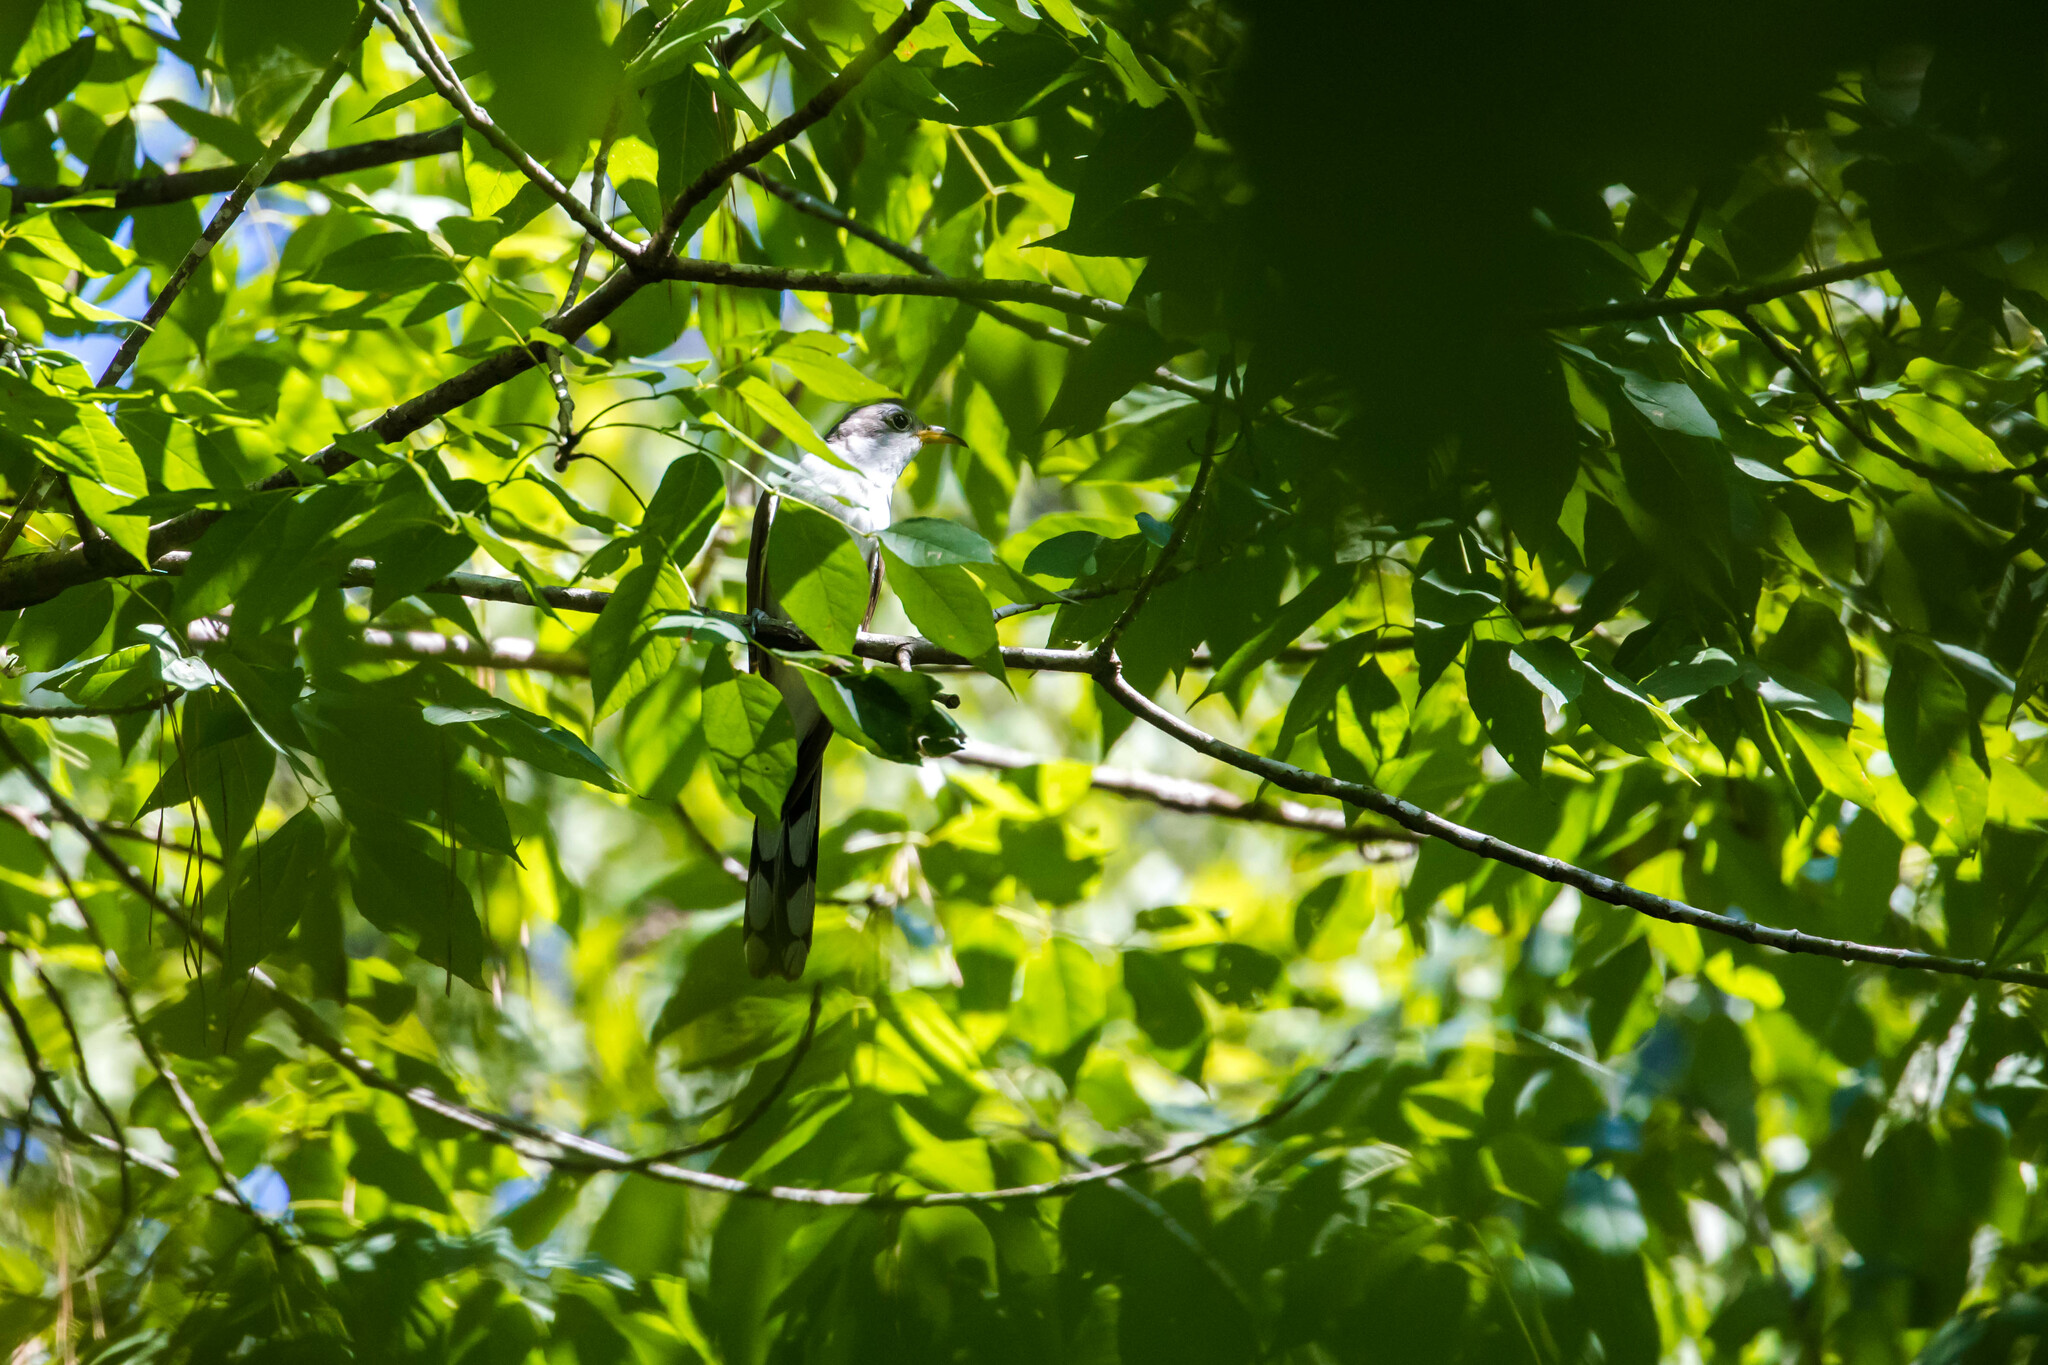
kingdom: Animalia
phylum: Chordata
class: Aves
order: Cuculiformes
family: Cuculidae
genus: Coccyzus
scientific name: Coccyzus americanus
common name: Yellow-billed cuckoo
